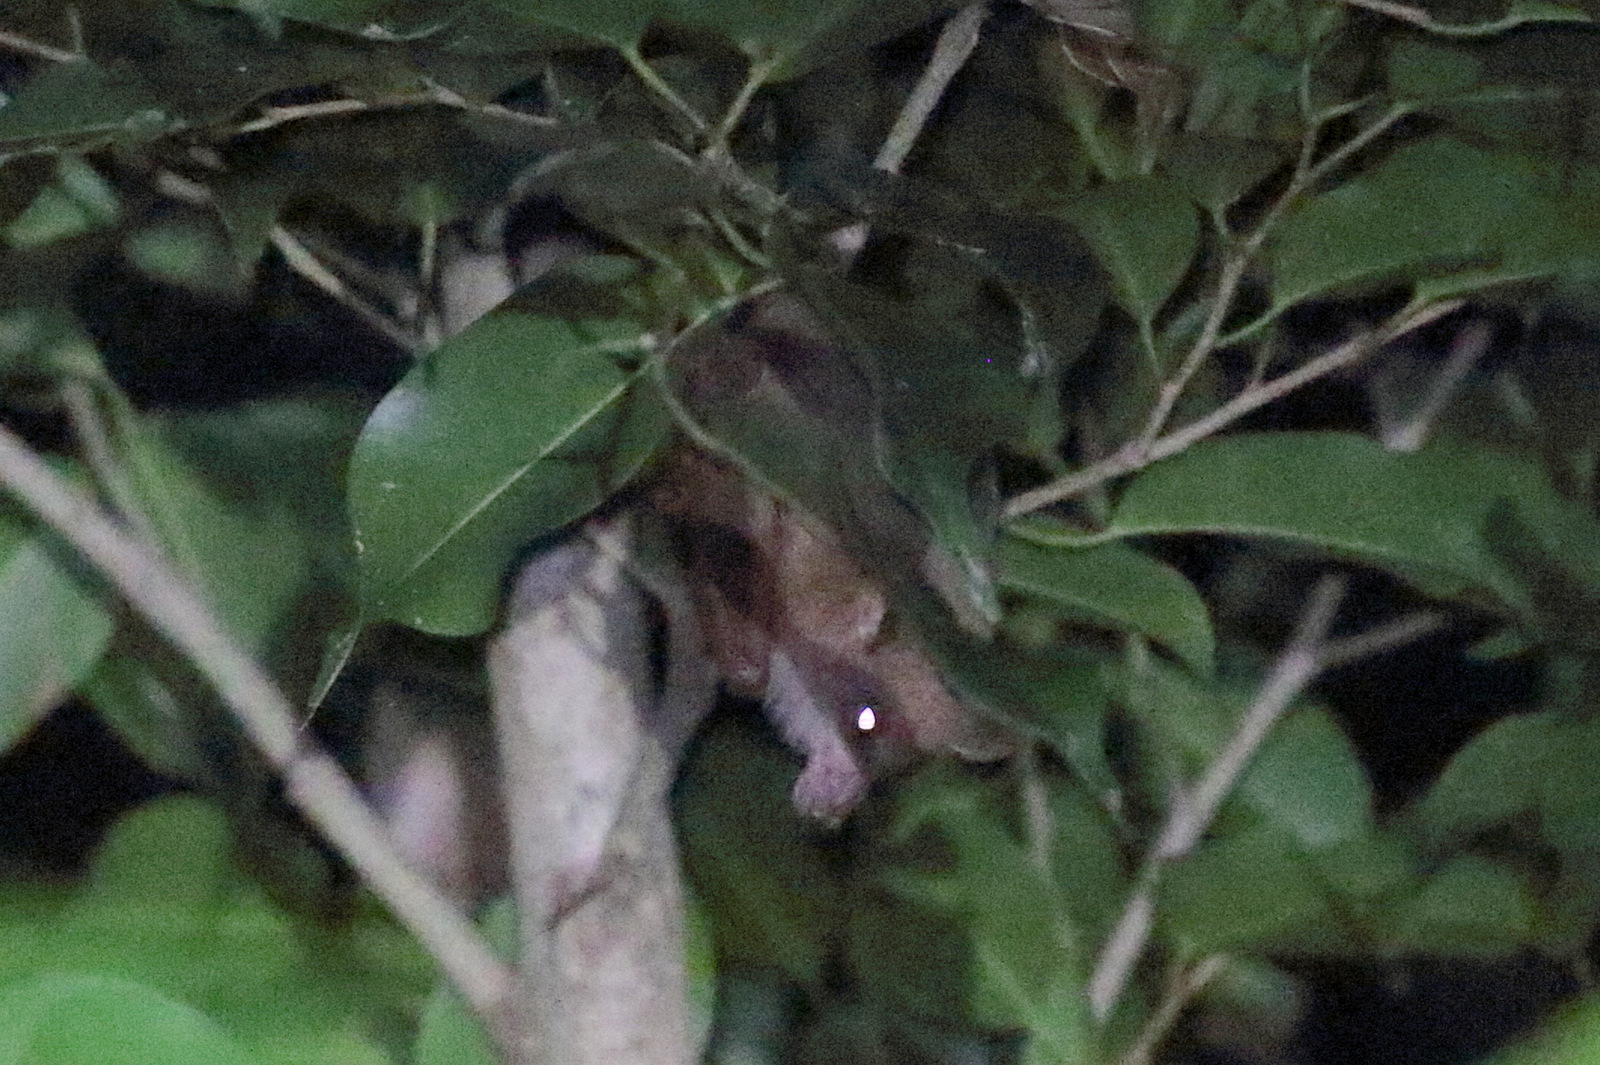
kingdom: Animalia
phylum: Chordata
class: Mammalia
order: Chiroptera
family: Pteropodidae
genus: Syconycteris
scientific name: Syconycteris australis
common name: Southern blossom bat
